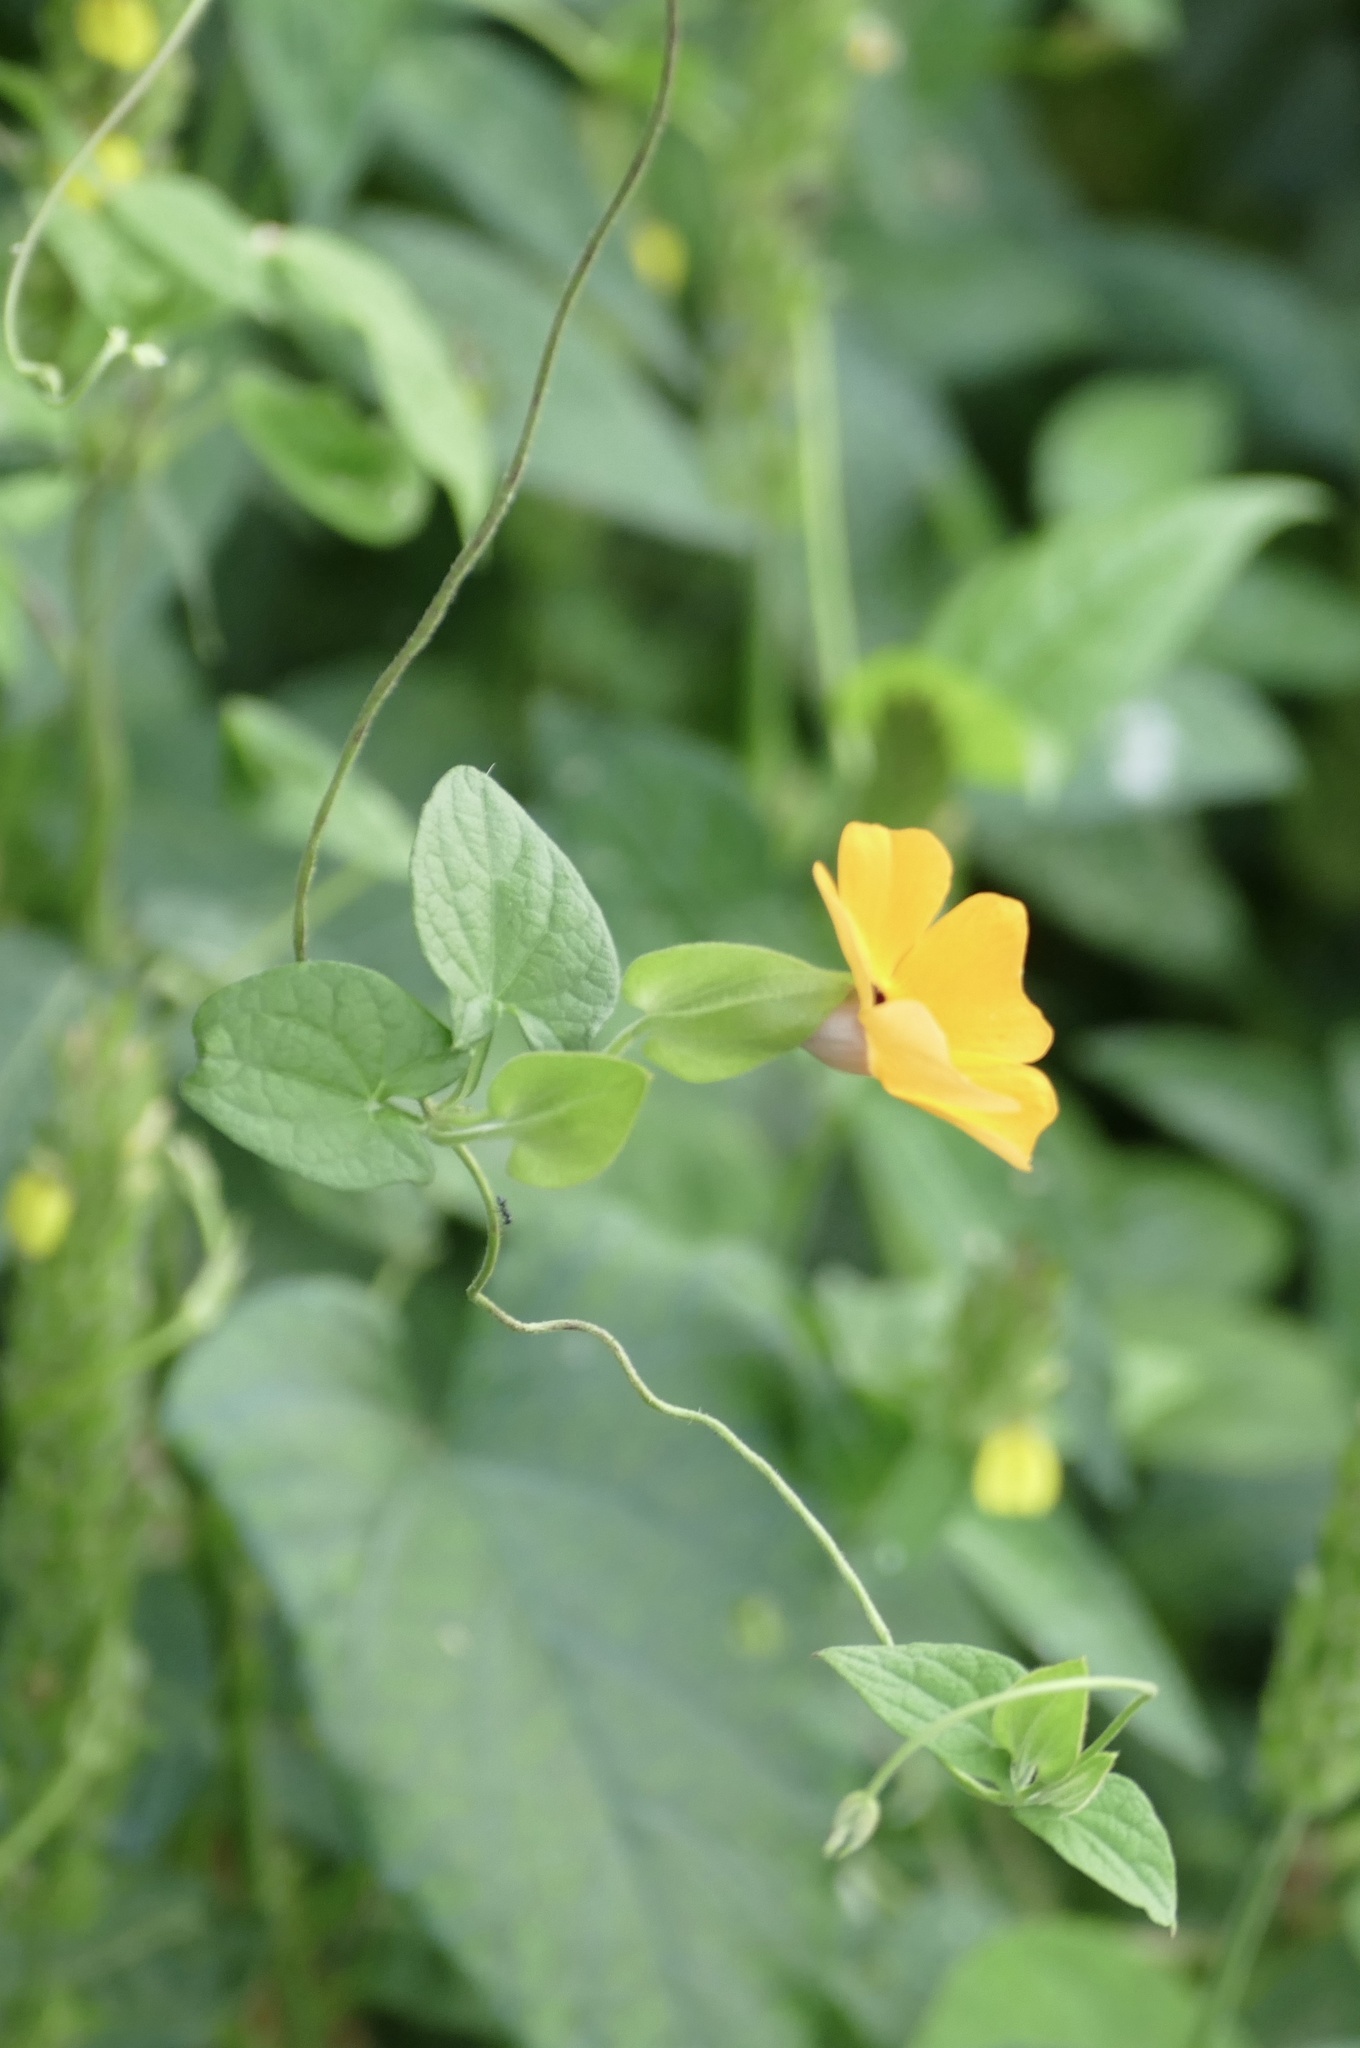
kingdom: Plantae
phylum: Tracheophyta
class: Magnoliopsida
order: Lamiales
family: Acanthaceae
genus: Thunbergia
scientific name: Thunbergia alata
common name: Blackeyed susan vine
